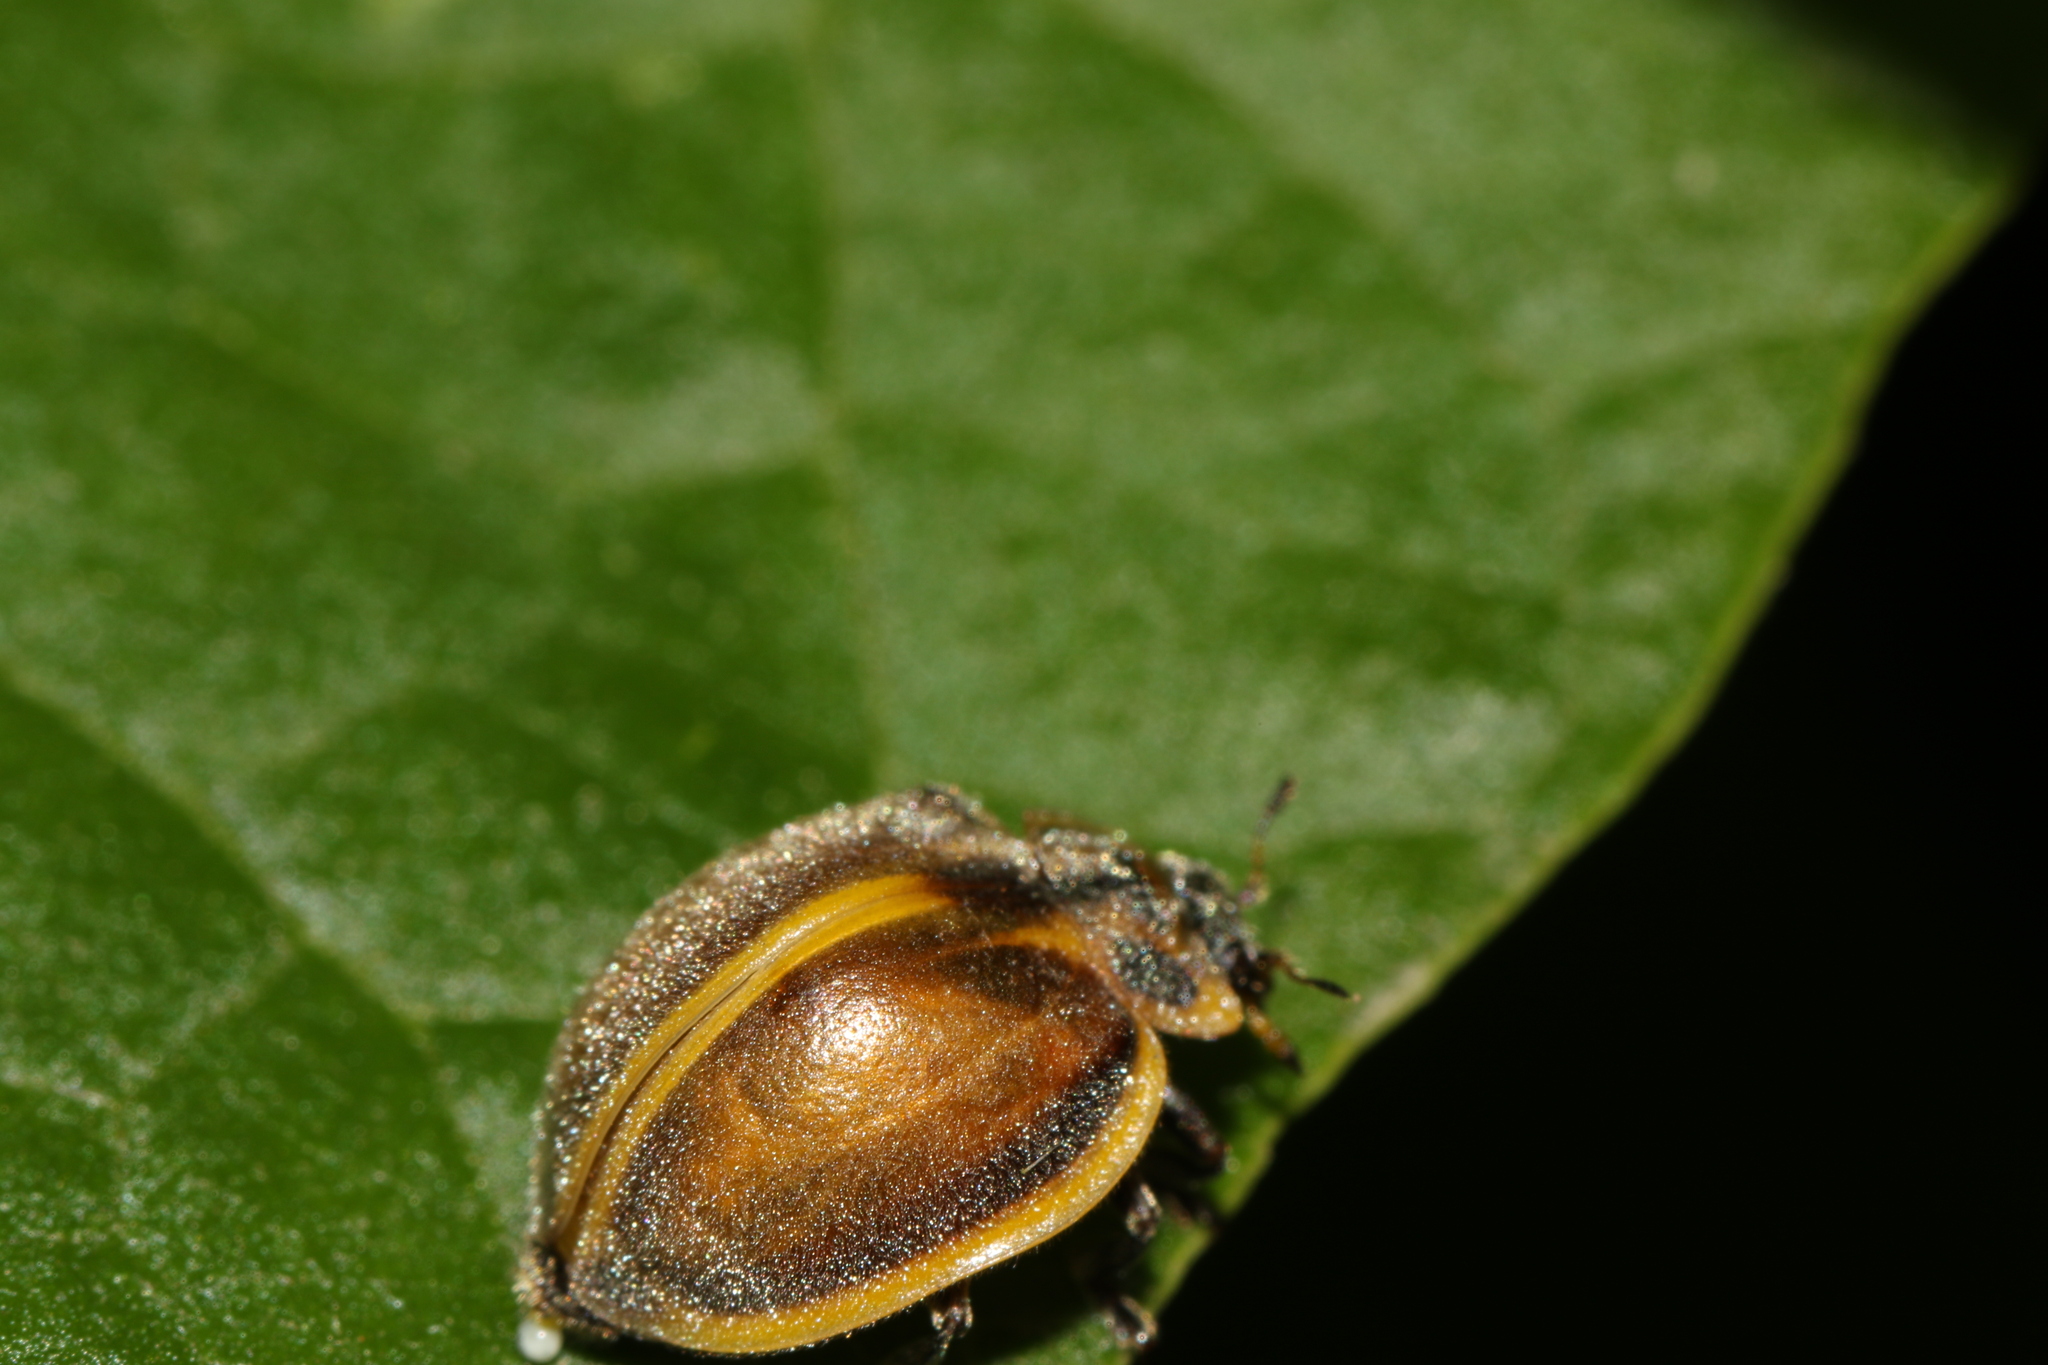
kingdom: Animalia
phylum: Arthropoda
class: Insecta
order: Coleoptera
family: Coccinellidae
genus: Epilachna
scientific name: Epilachna
